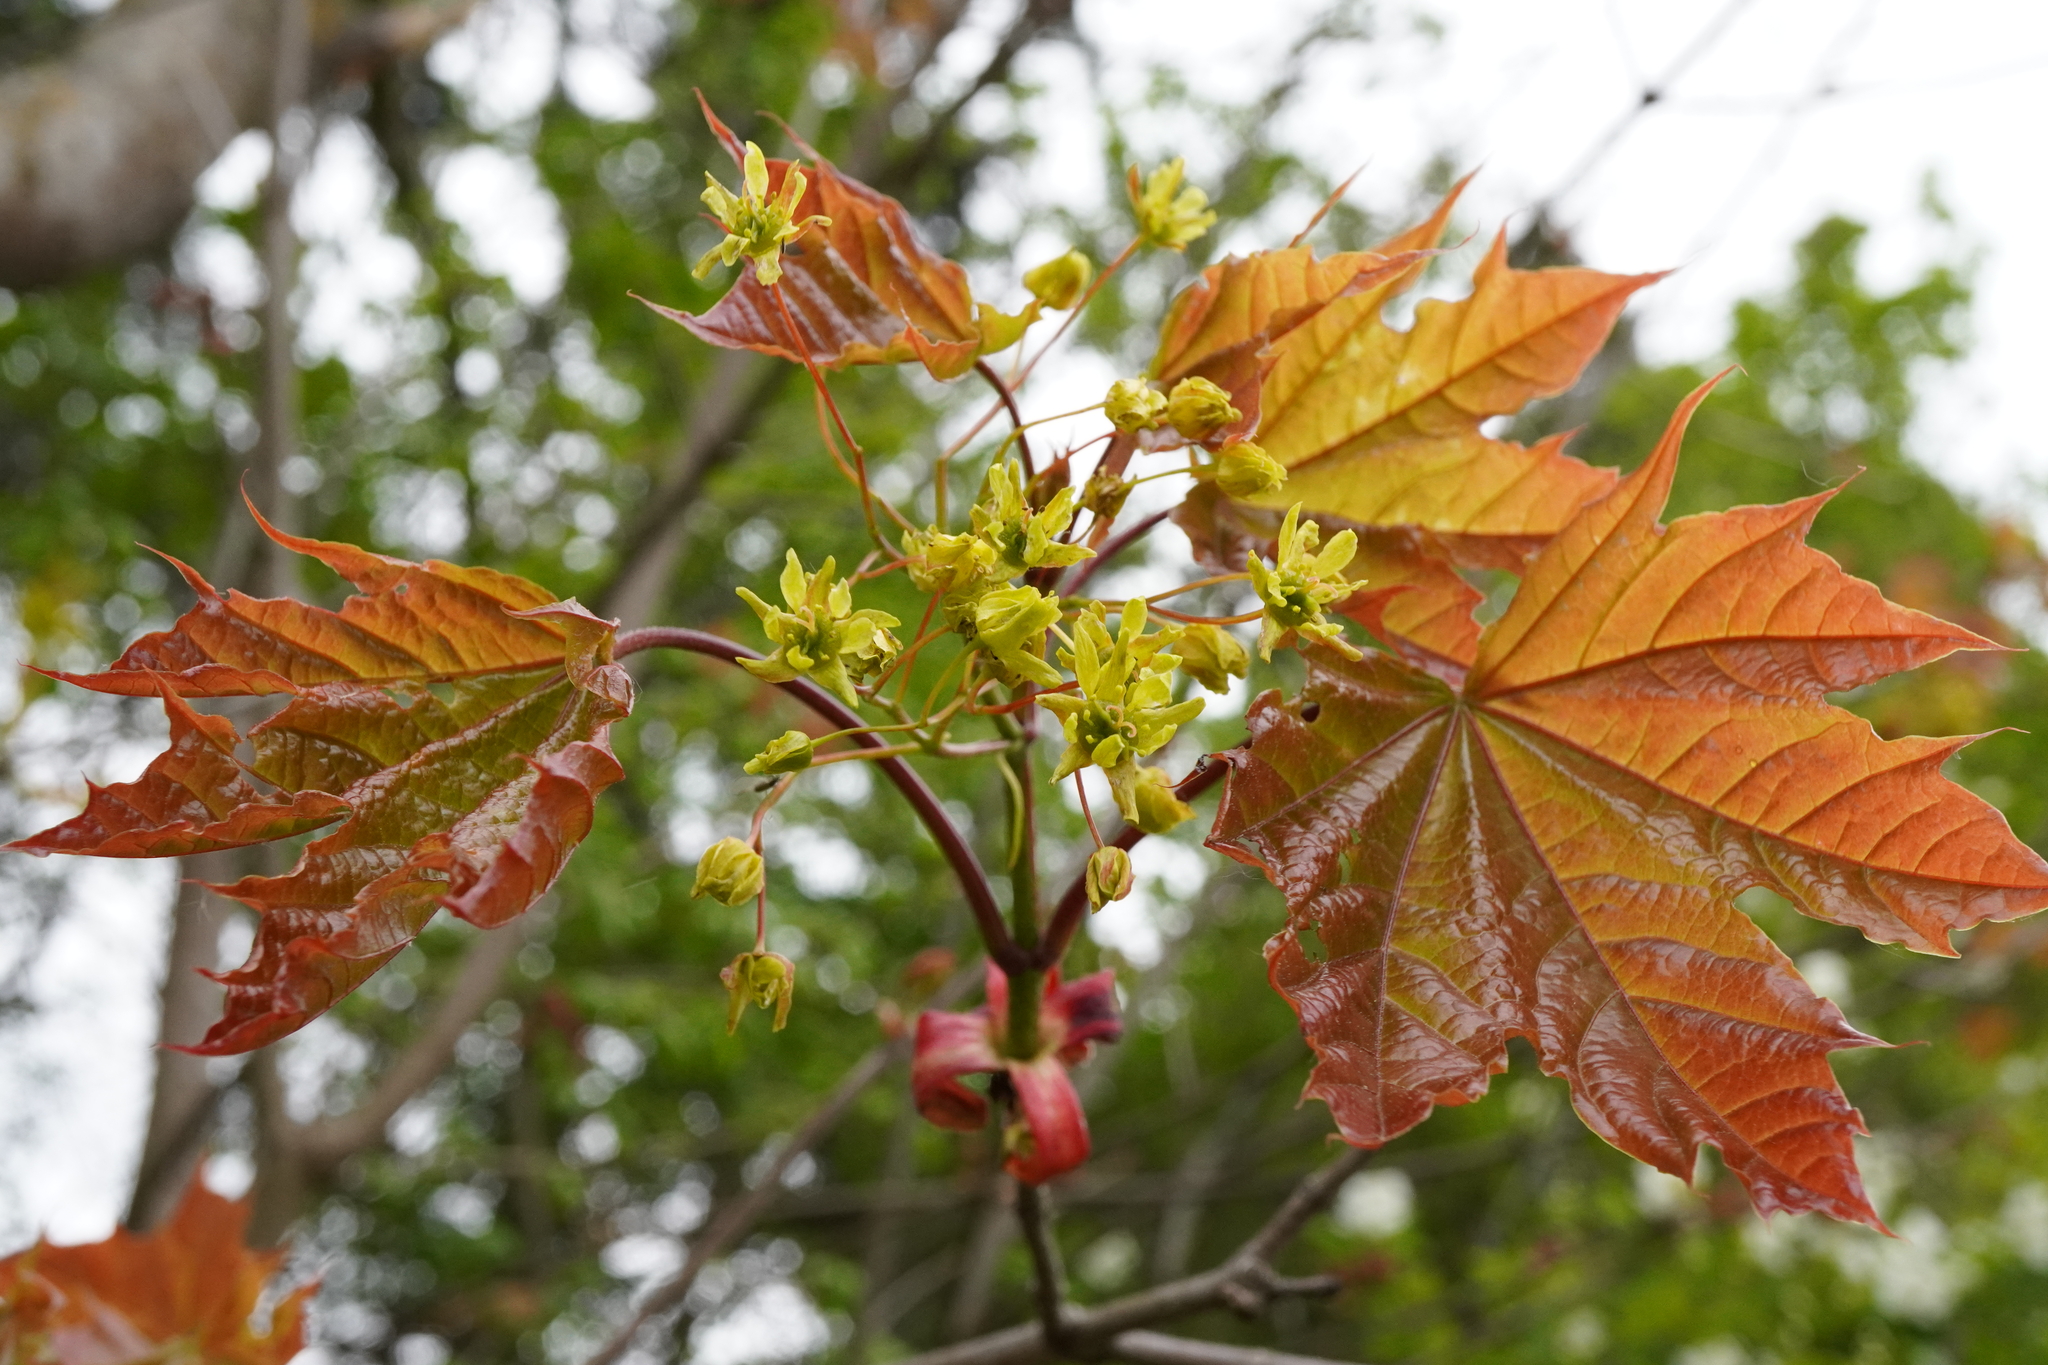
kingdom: Plantae
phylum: Tracheophyta
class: Magnoliopsida
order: Sapindales
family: Sapindaceae
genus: Acer
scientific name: Acer platanoides
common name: Norway maple
